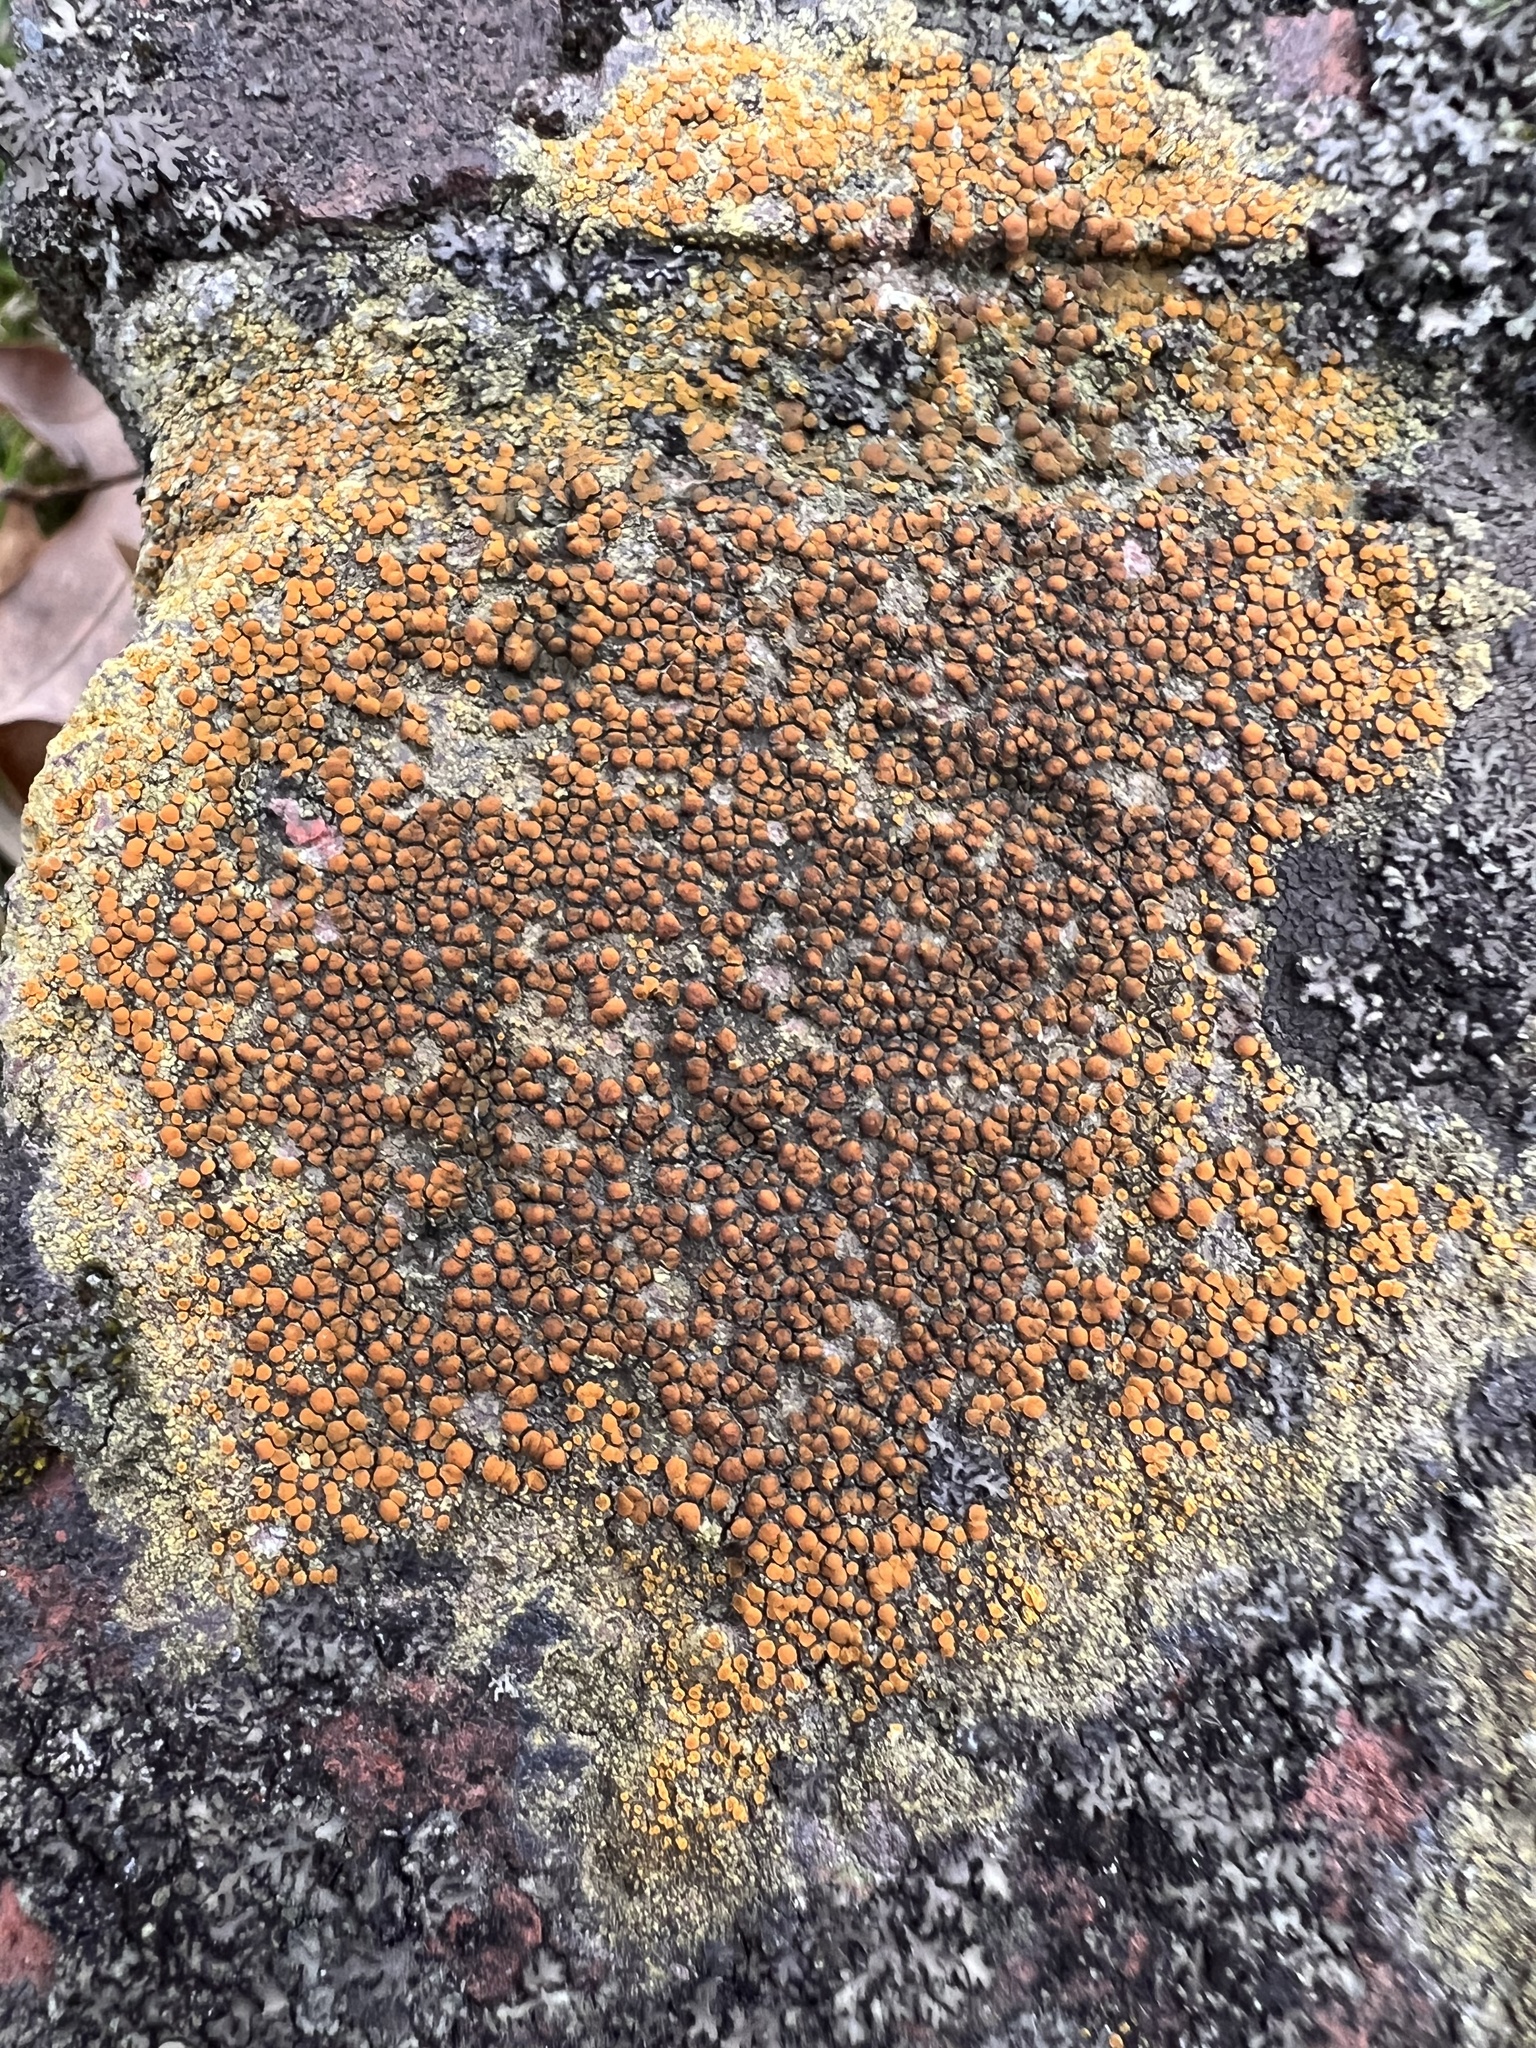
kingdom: Fungi
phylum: Ascomycota
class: Lecanoromycetes
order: Teloschistales
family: Teloschistaceae
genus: Gyalolechia
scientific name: Gyalolechia flavovirescens
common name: Sulphur firedot
